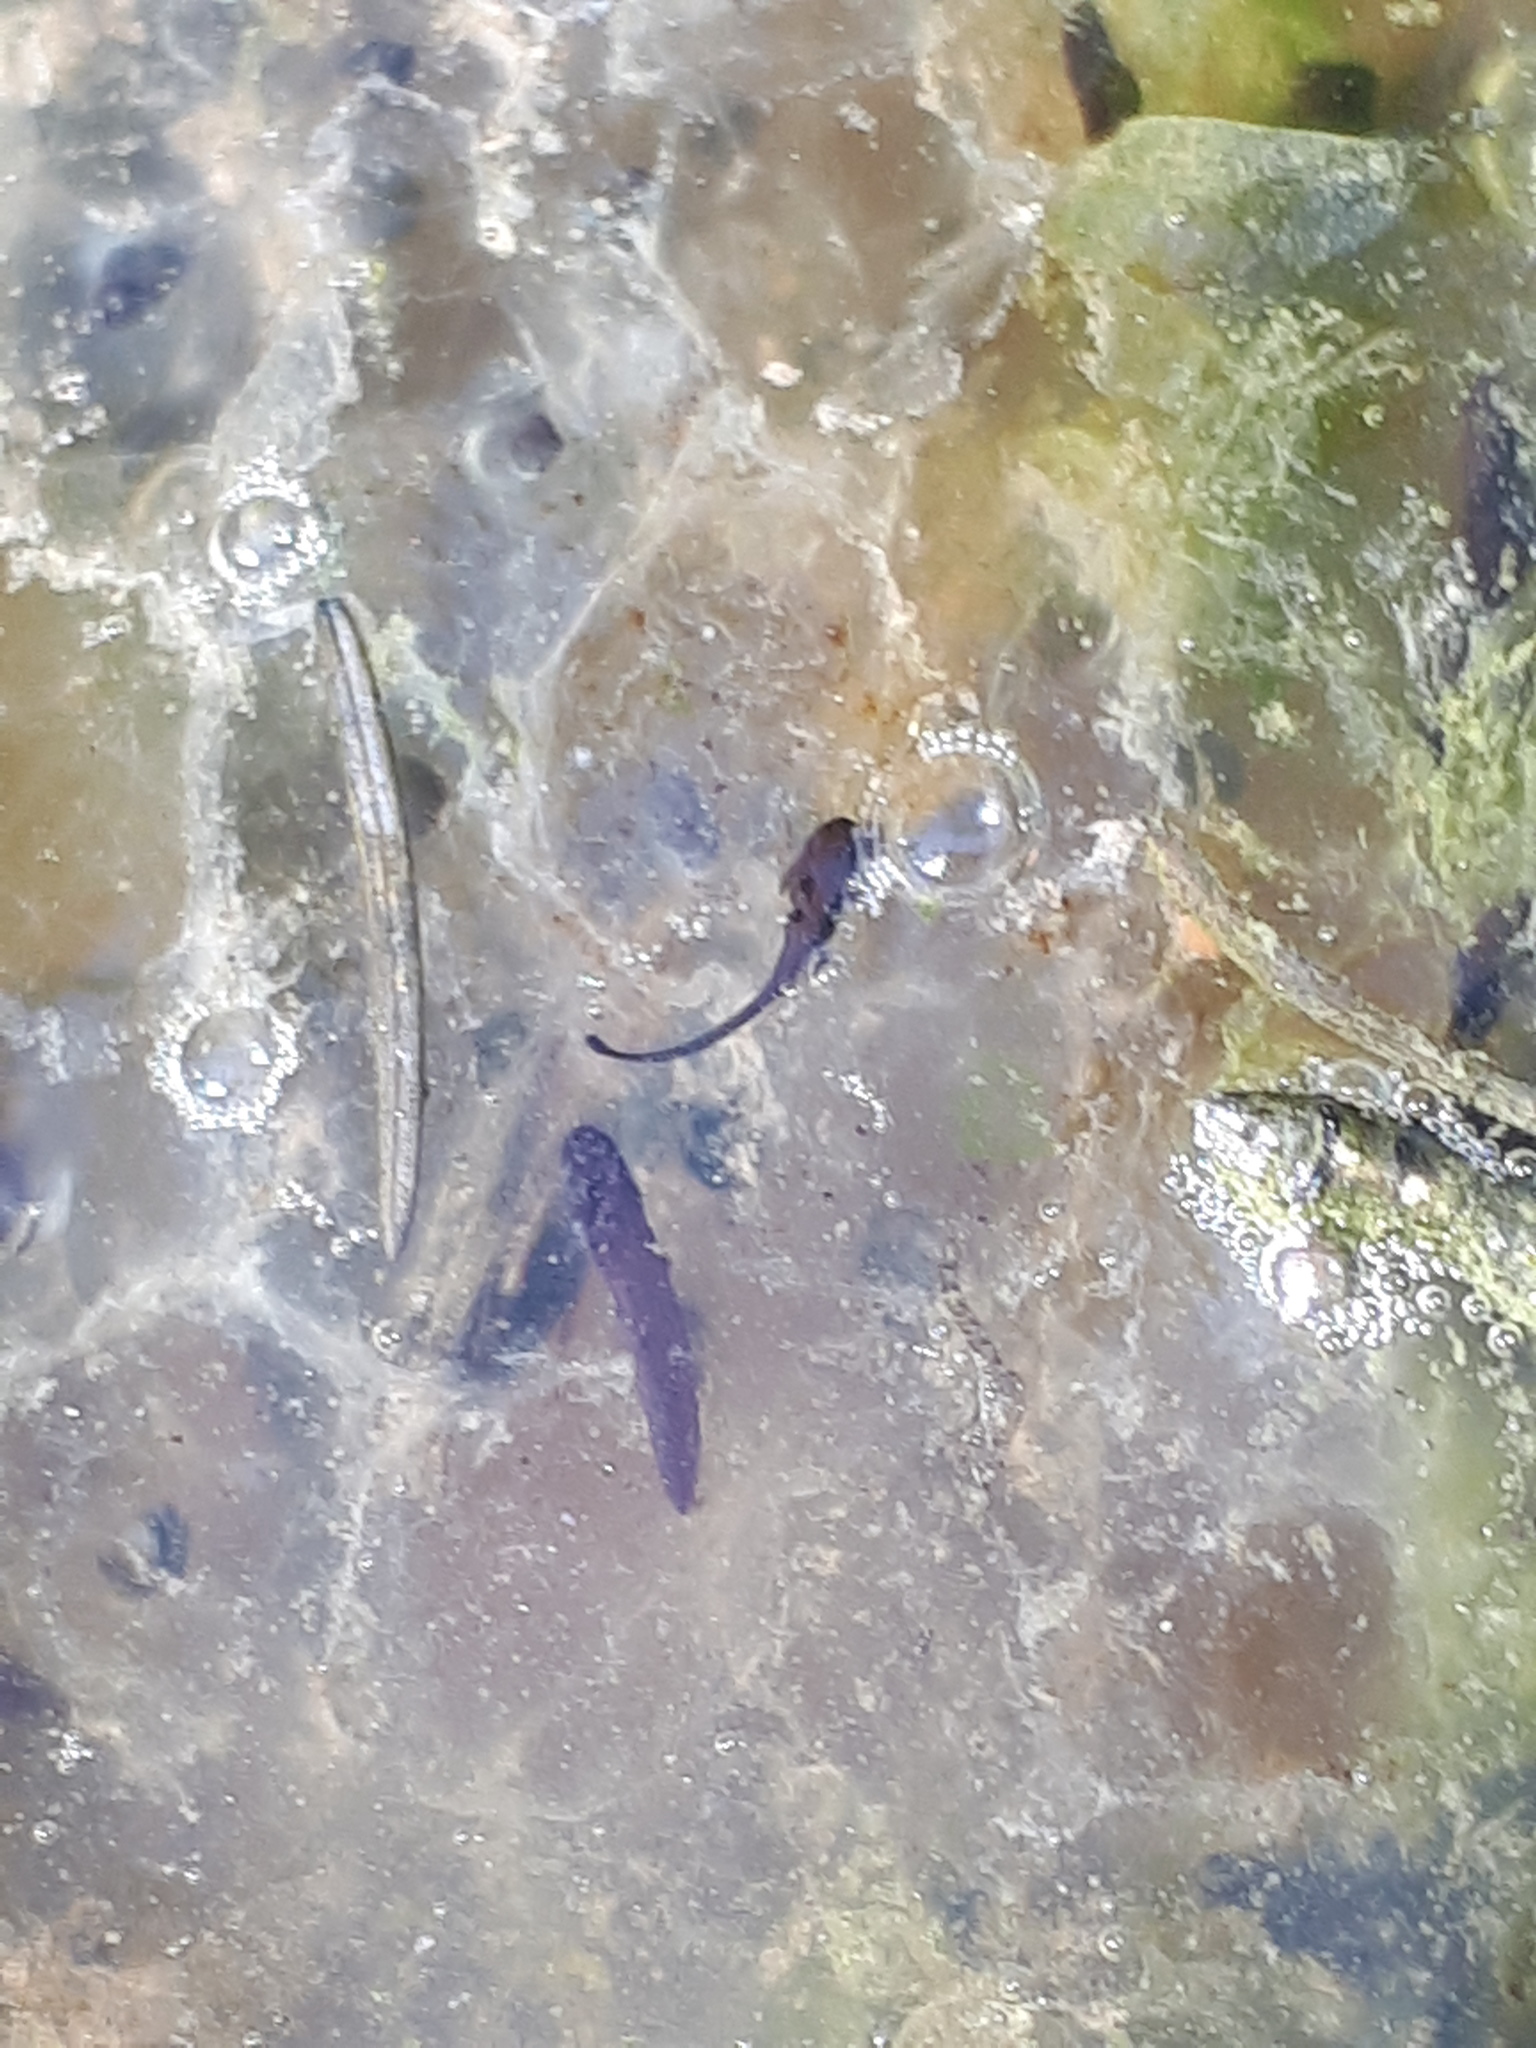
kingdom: Animalia
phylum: Chordata
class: Amphibia
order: Anura
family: Ranidae
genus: Rana
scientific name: Rana temporaria
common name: Common frog
